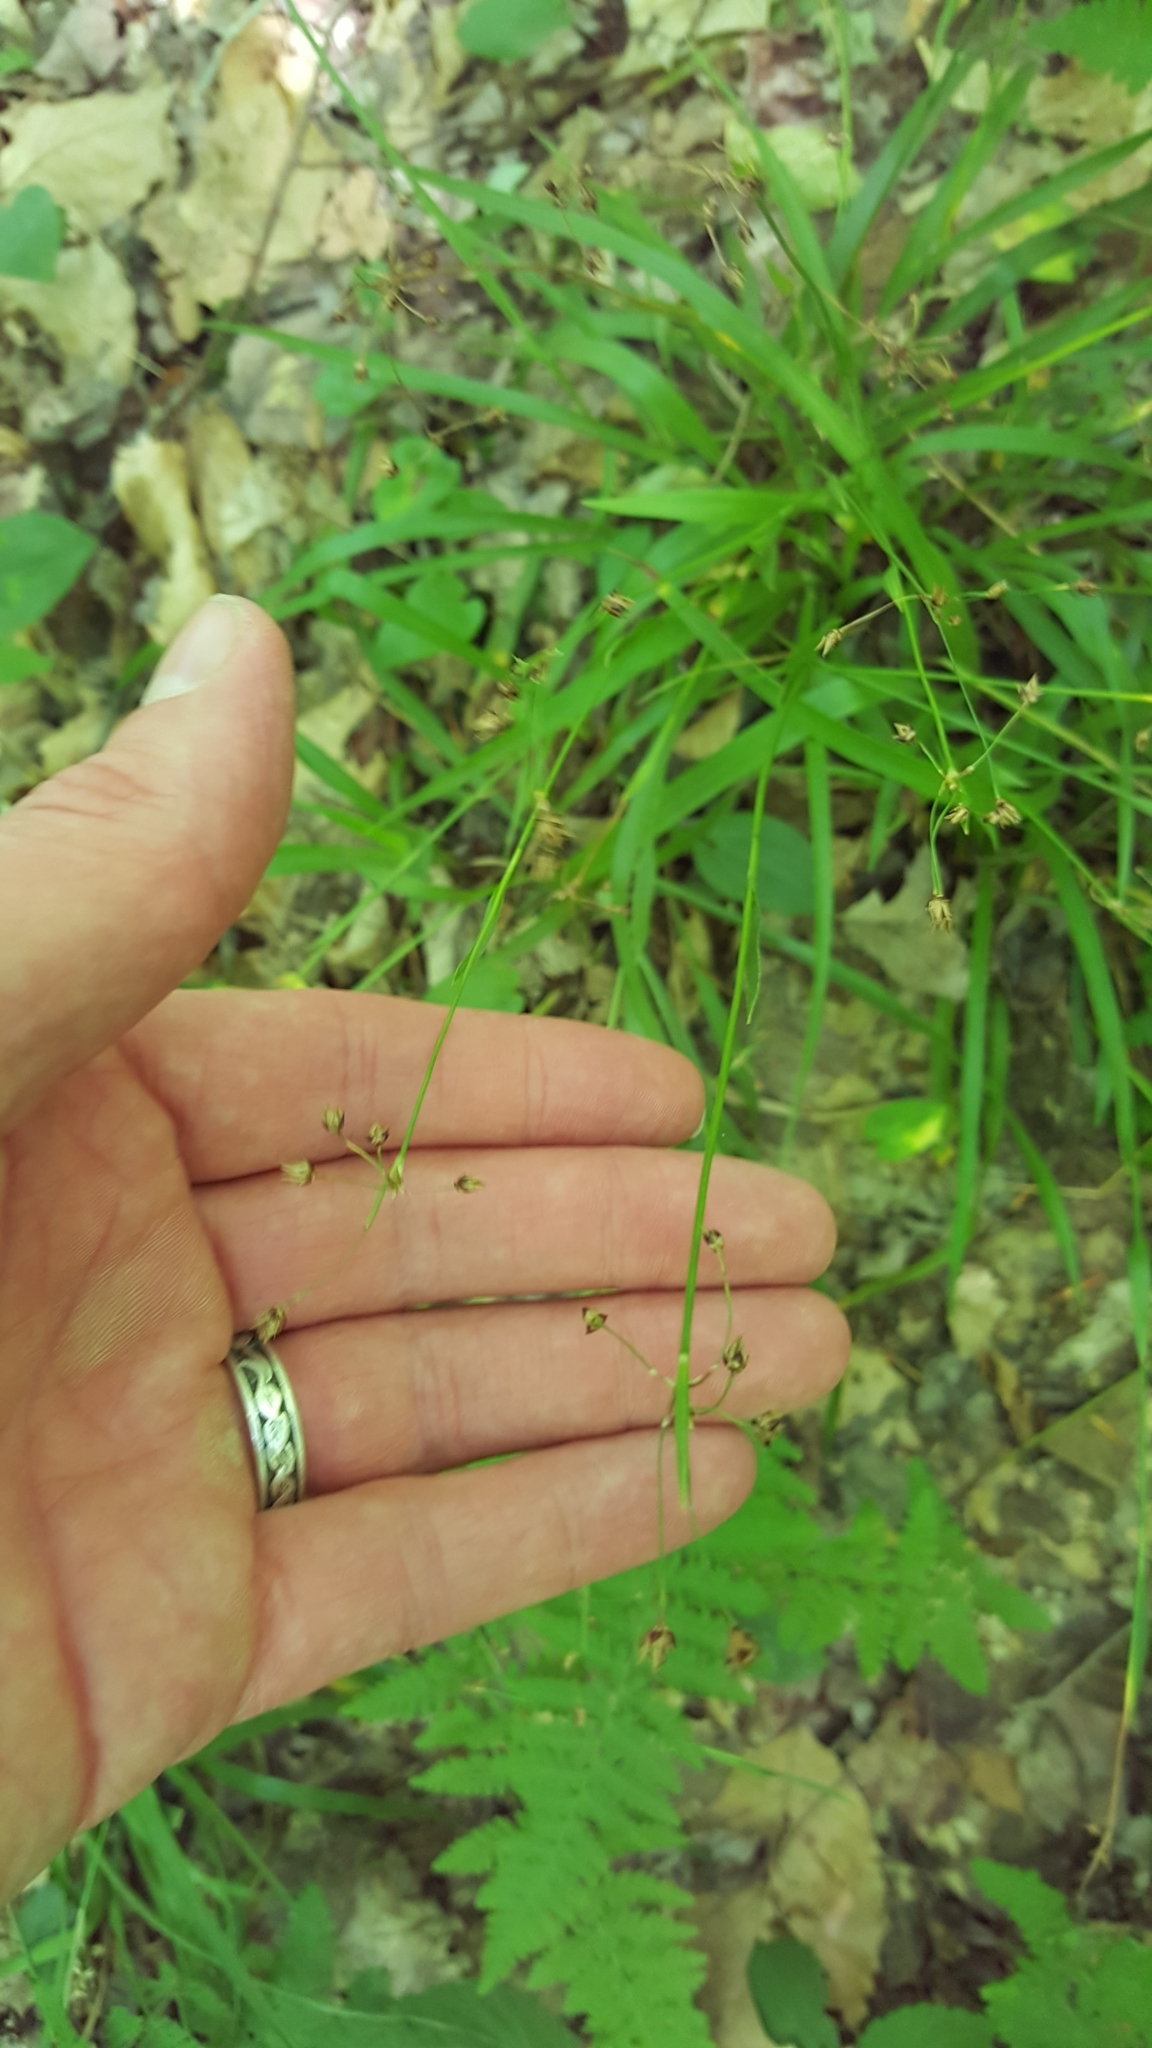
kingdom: Plantae
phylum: Tracheophyta
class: Liliopsida
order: Poales
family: Juncaceae
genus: Luzula
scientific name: Luzula acuminata
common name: Hairy woodrush
